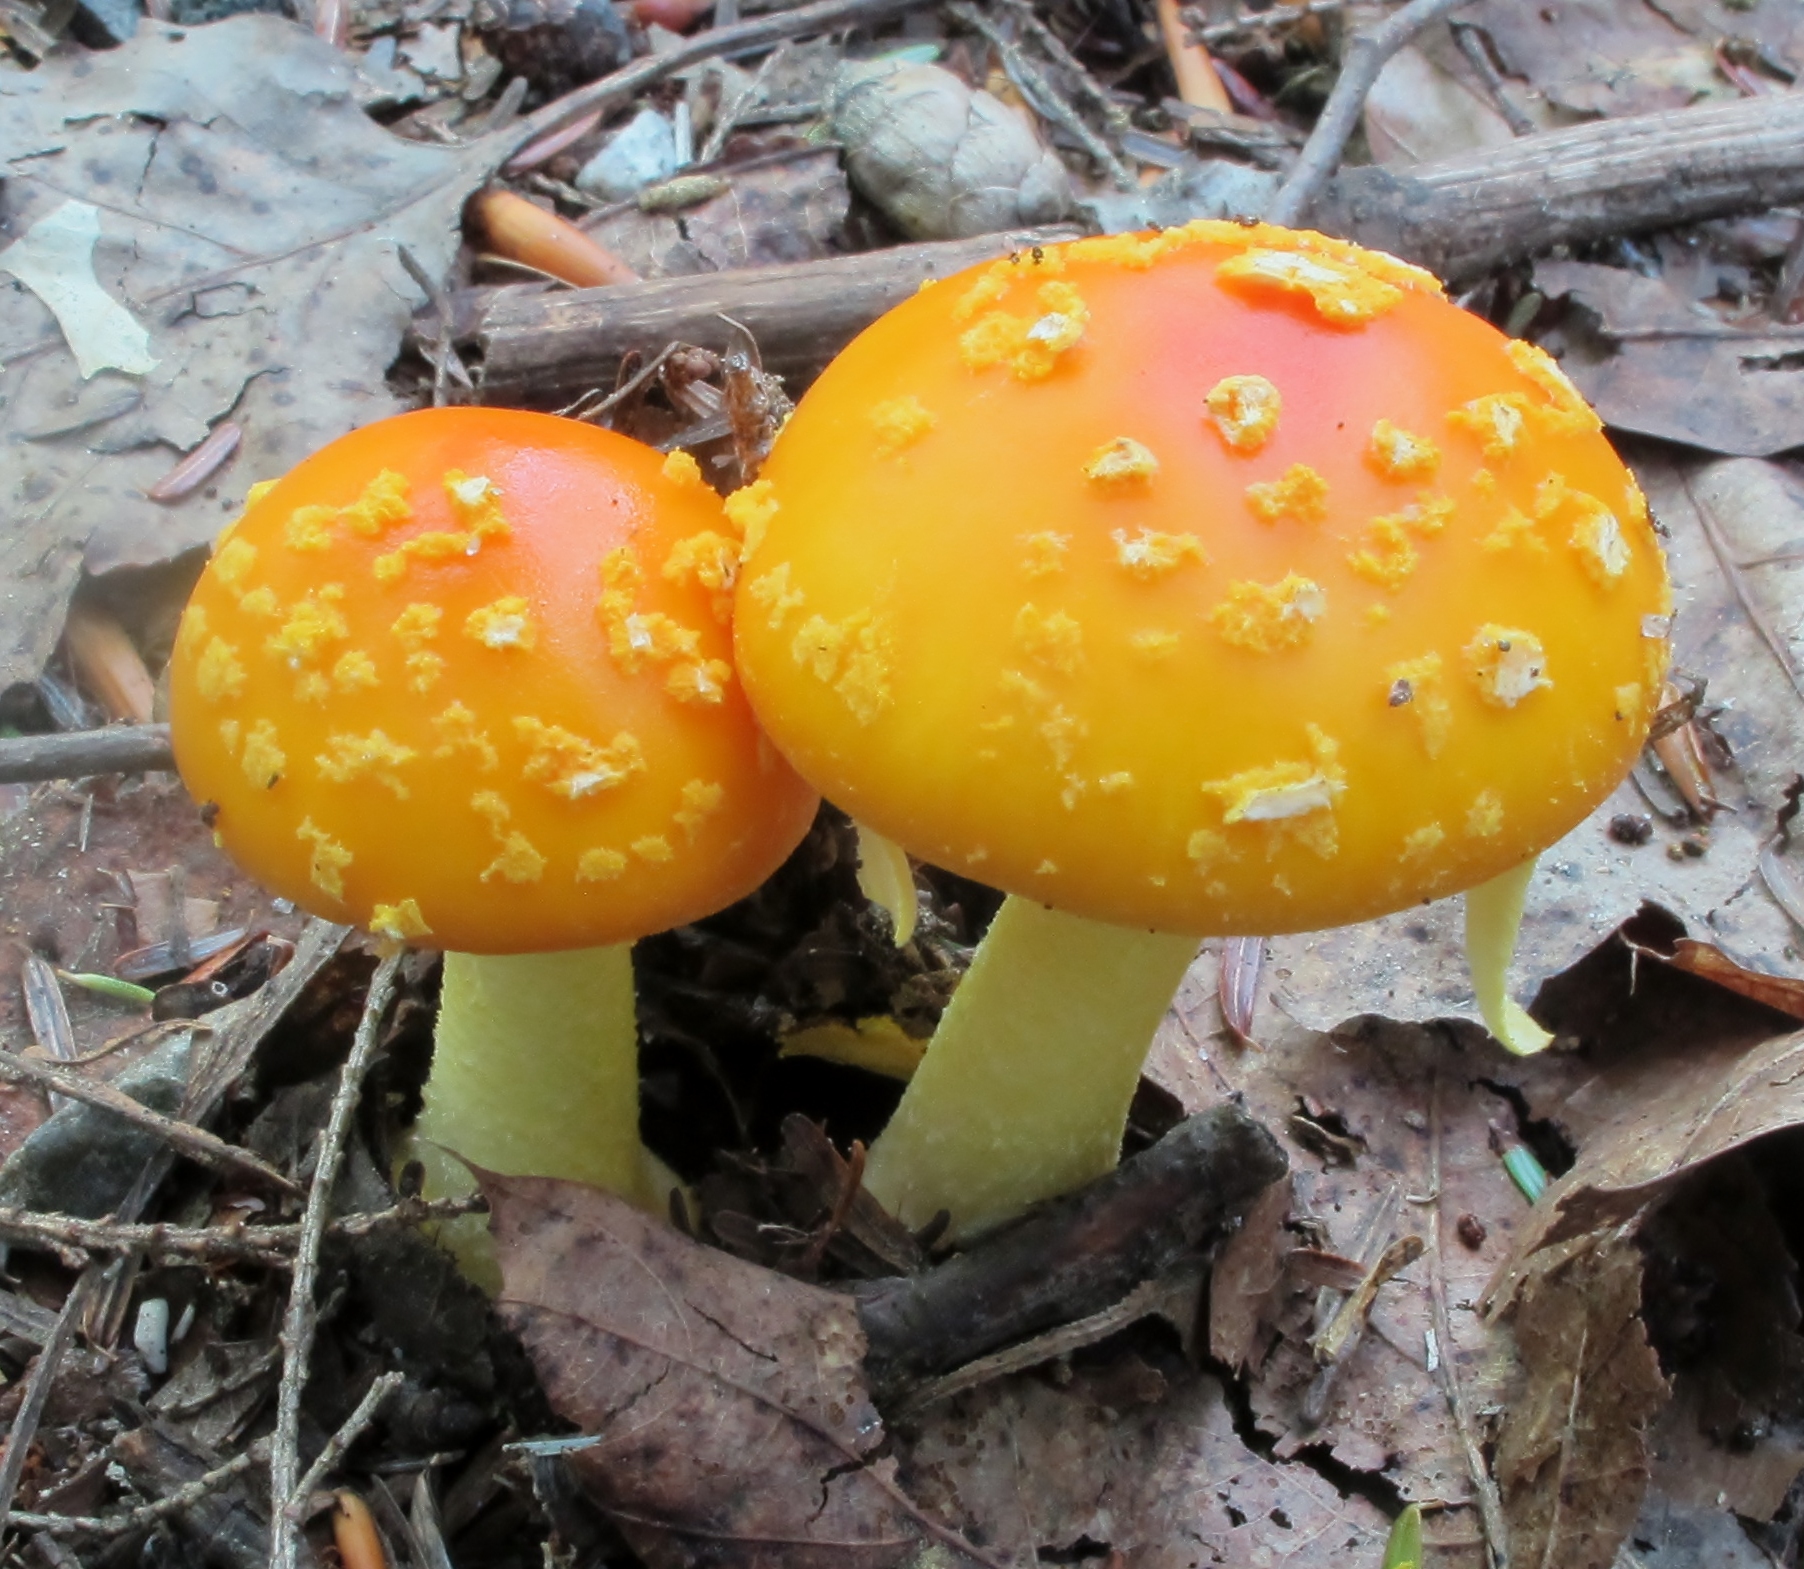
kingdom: Fungi
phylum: Basidiomycota
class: Agaricomycetes
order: Agaricales
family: Amanitaceae
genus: Amanita
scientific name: Amanita flavoconia
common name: Yellow patches
